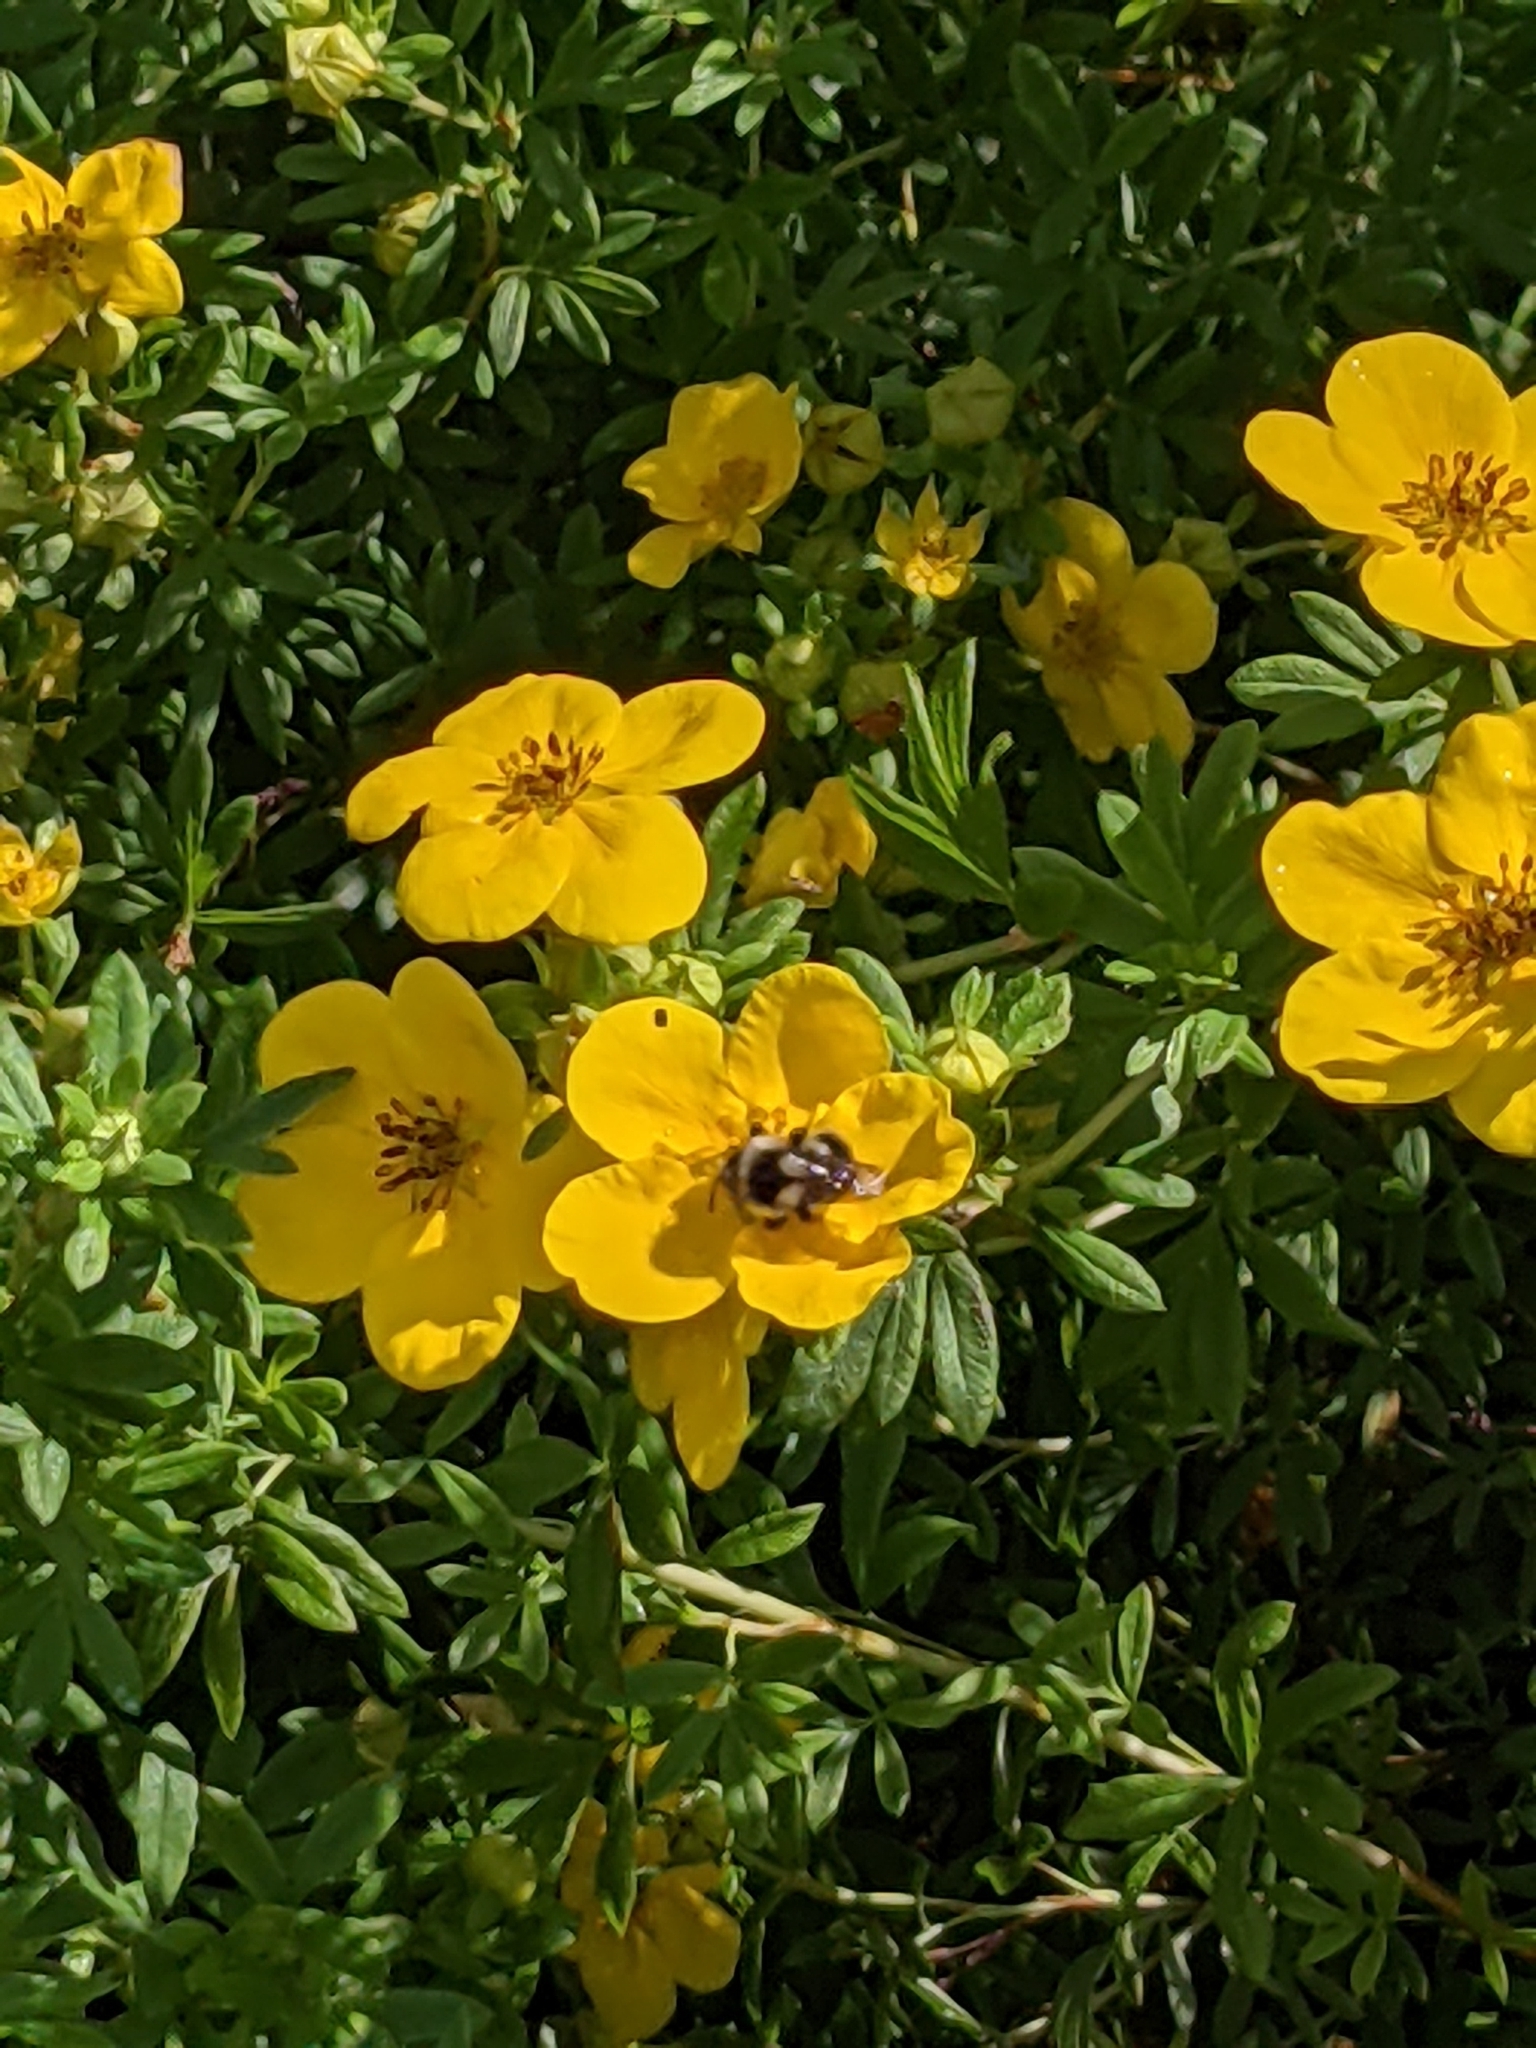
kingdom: Animalia
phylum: Arthropoda
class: Insecta
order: Hymenoptera
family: Apidae
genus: Bombus
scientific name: Bombus vancouverensis
